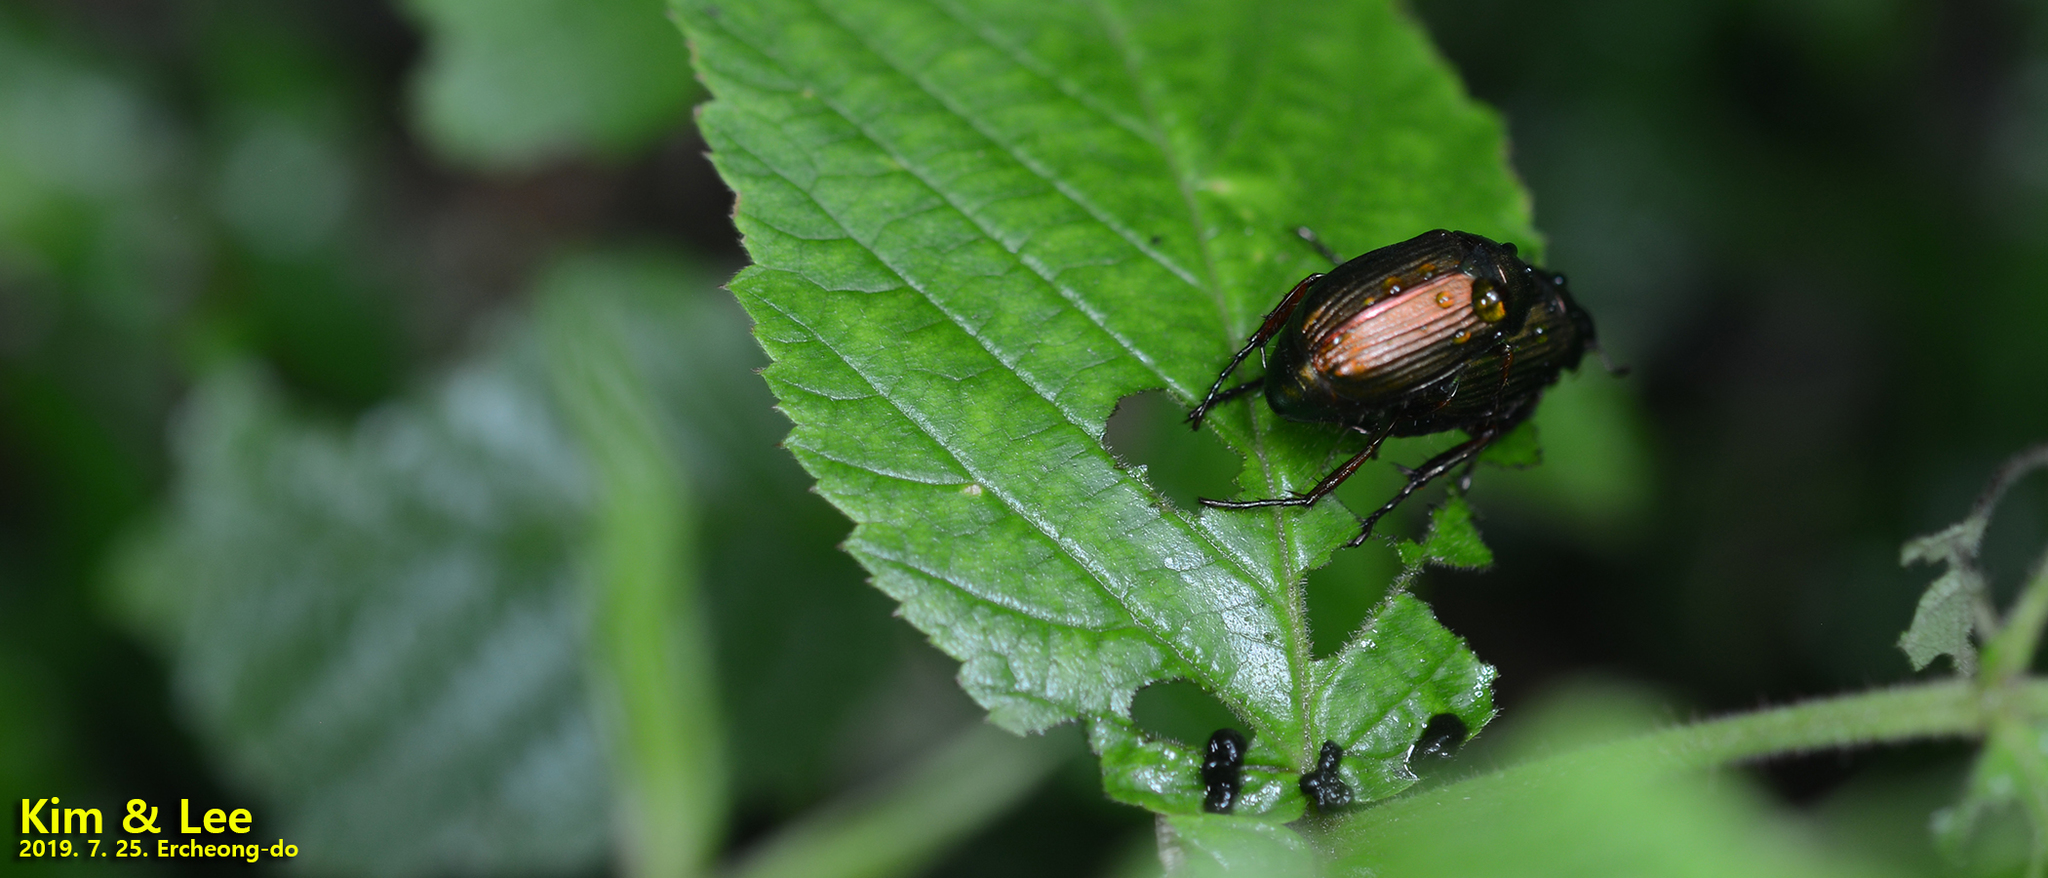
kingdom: Animalia
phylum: Arthropoda
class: Insecta
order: Coleoptera
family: Scarabaeidae
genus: Anomala
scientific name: Anomala aulax
